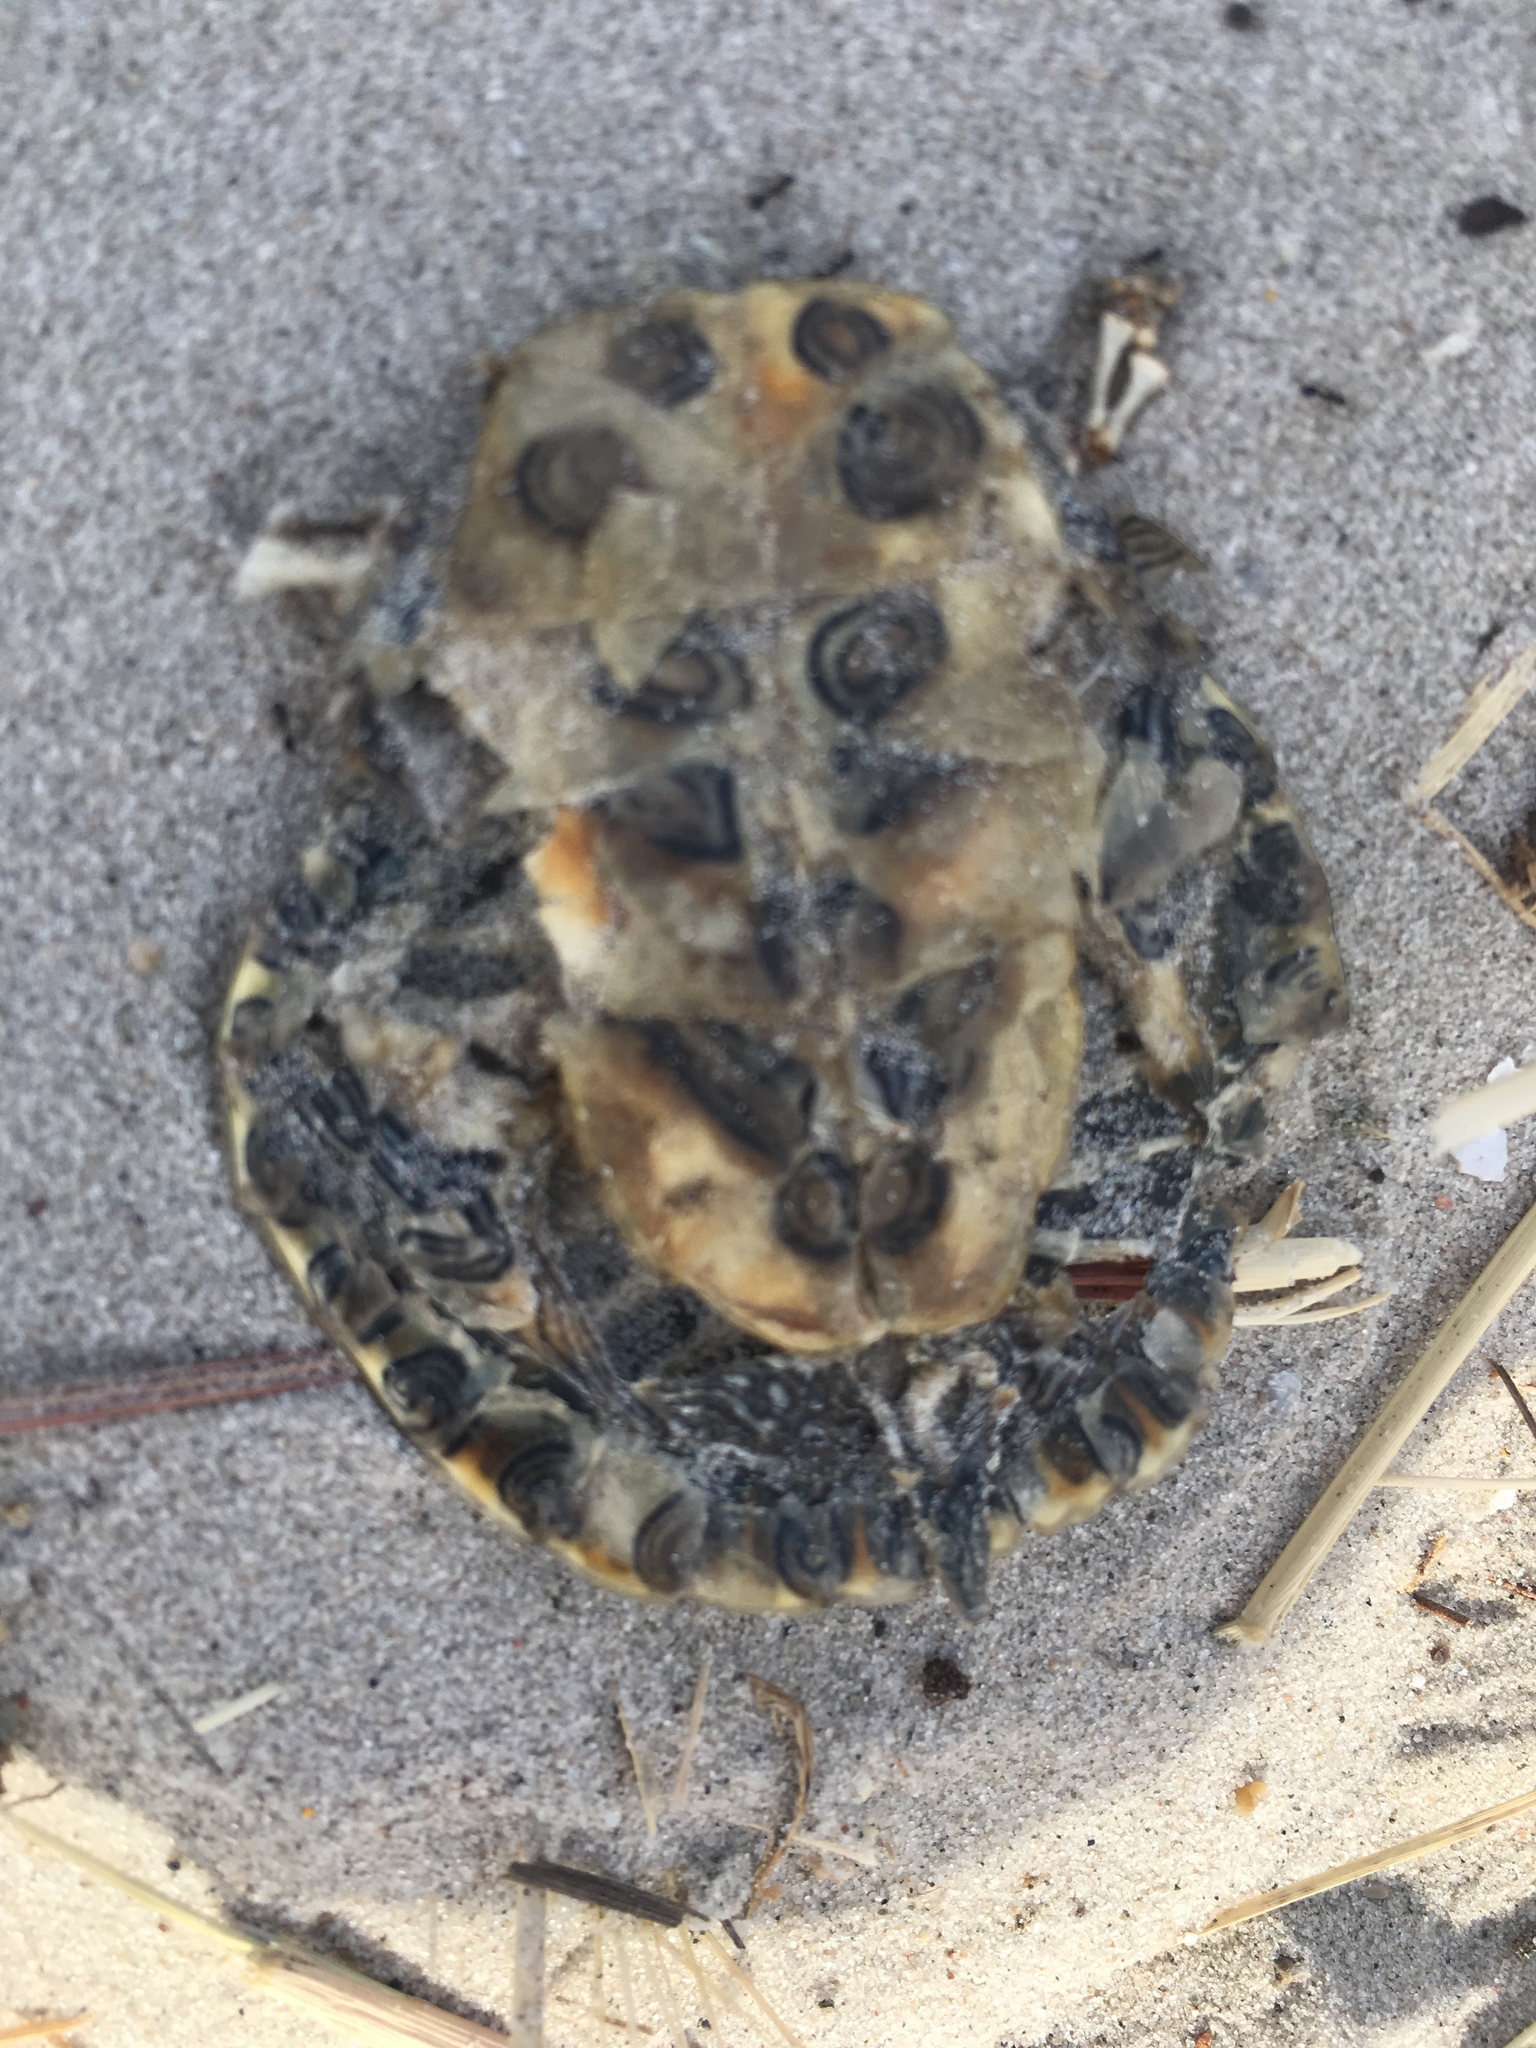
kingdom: Animalia
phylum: Chordata
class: Testudines
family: Emydidae
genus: Trachemys
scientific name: Trachemys scripta
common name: Slider
